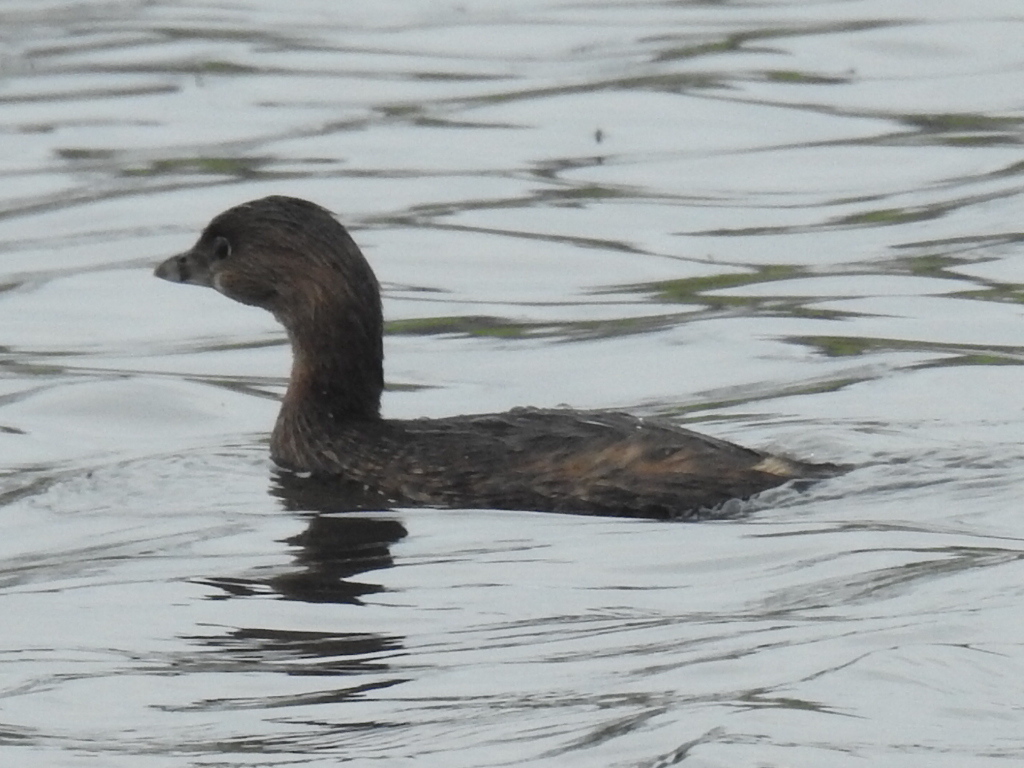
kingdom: Animalia
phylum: Chordata
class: Aves
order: Podicipediformes
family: Podicipedidae
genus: Podilymbus
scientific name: Podilymbus podiceps
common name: Pied-billed grebe
